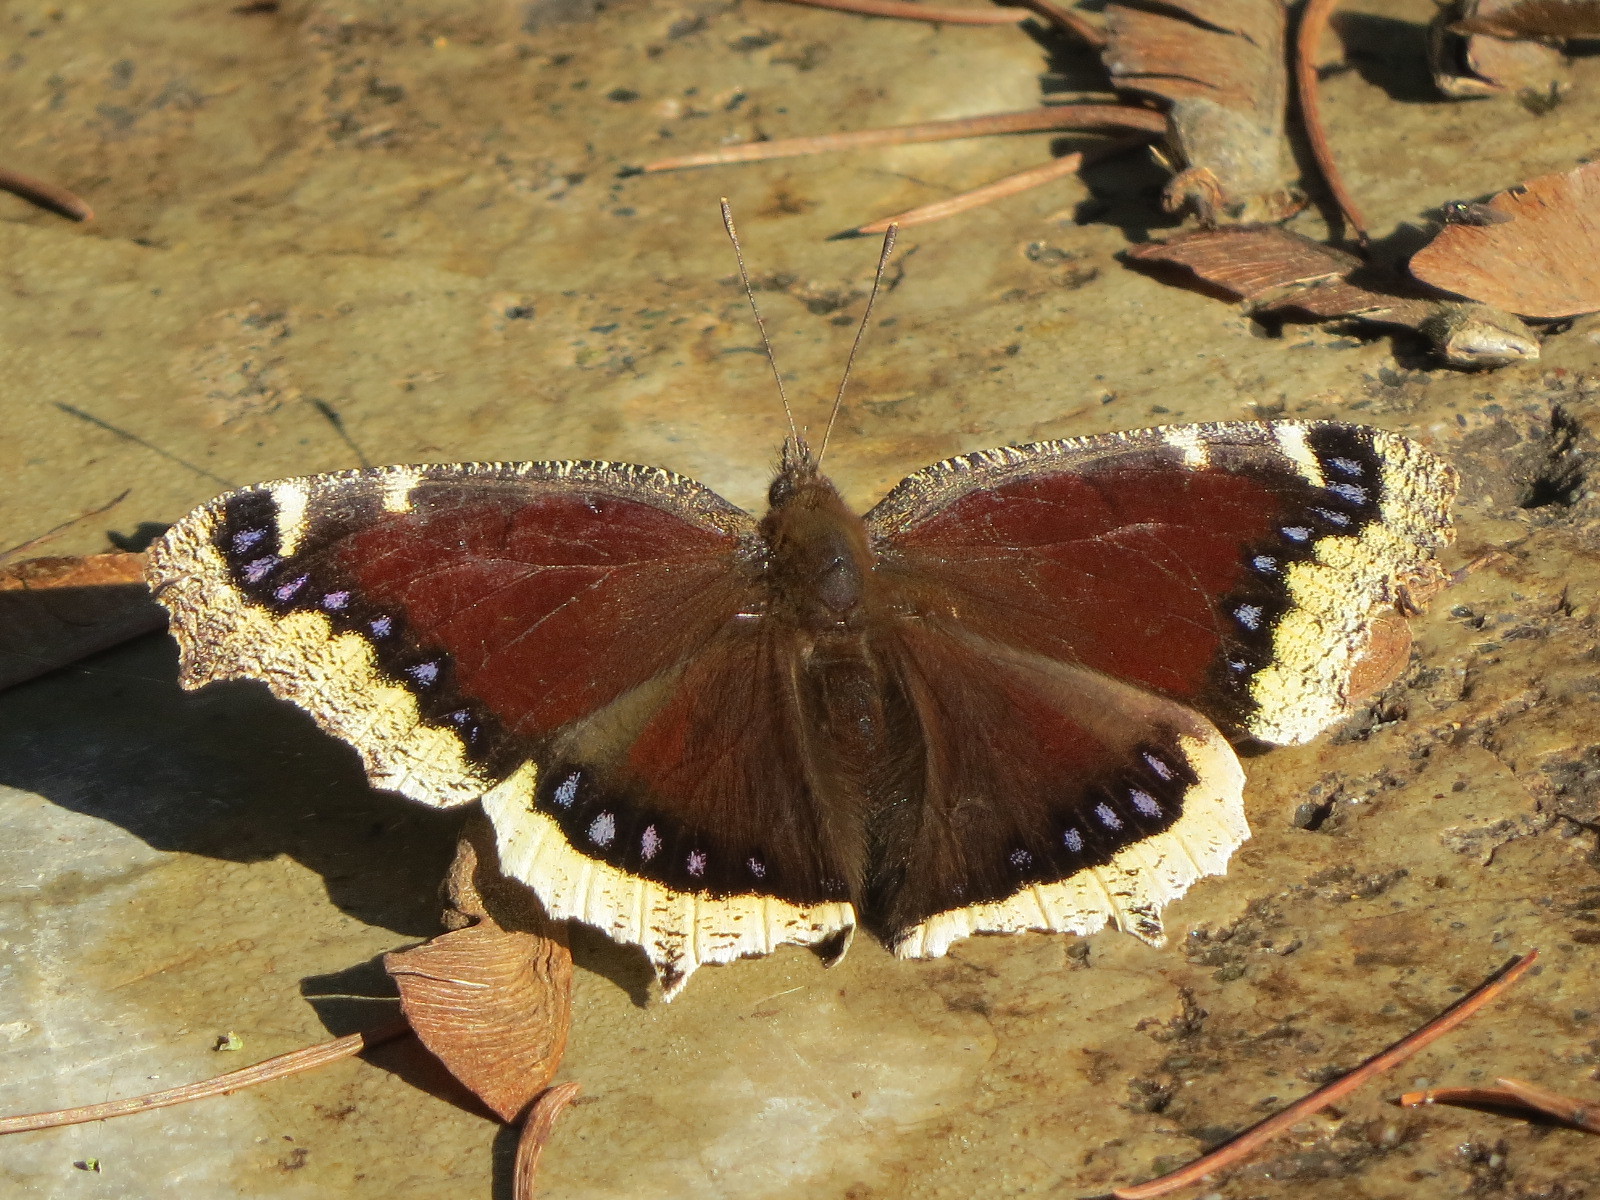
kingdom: Animalia
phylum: Arthropoda
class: Insecta
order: Lepidoptera
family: Nymphalidae
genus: Nymphalis
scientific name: Nymphalis antiopa
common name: Camberwell beauty
